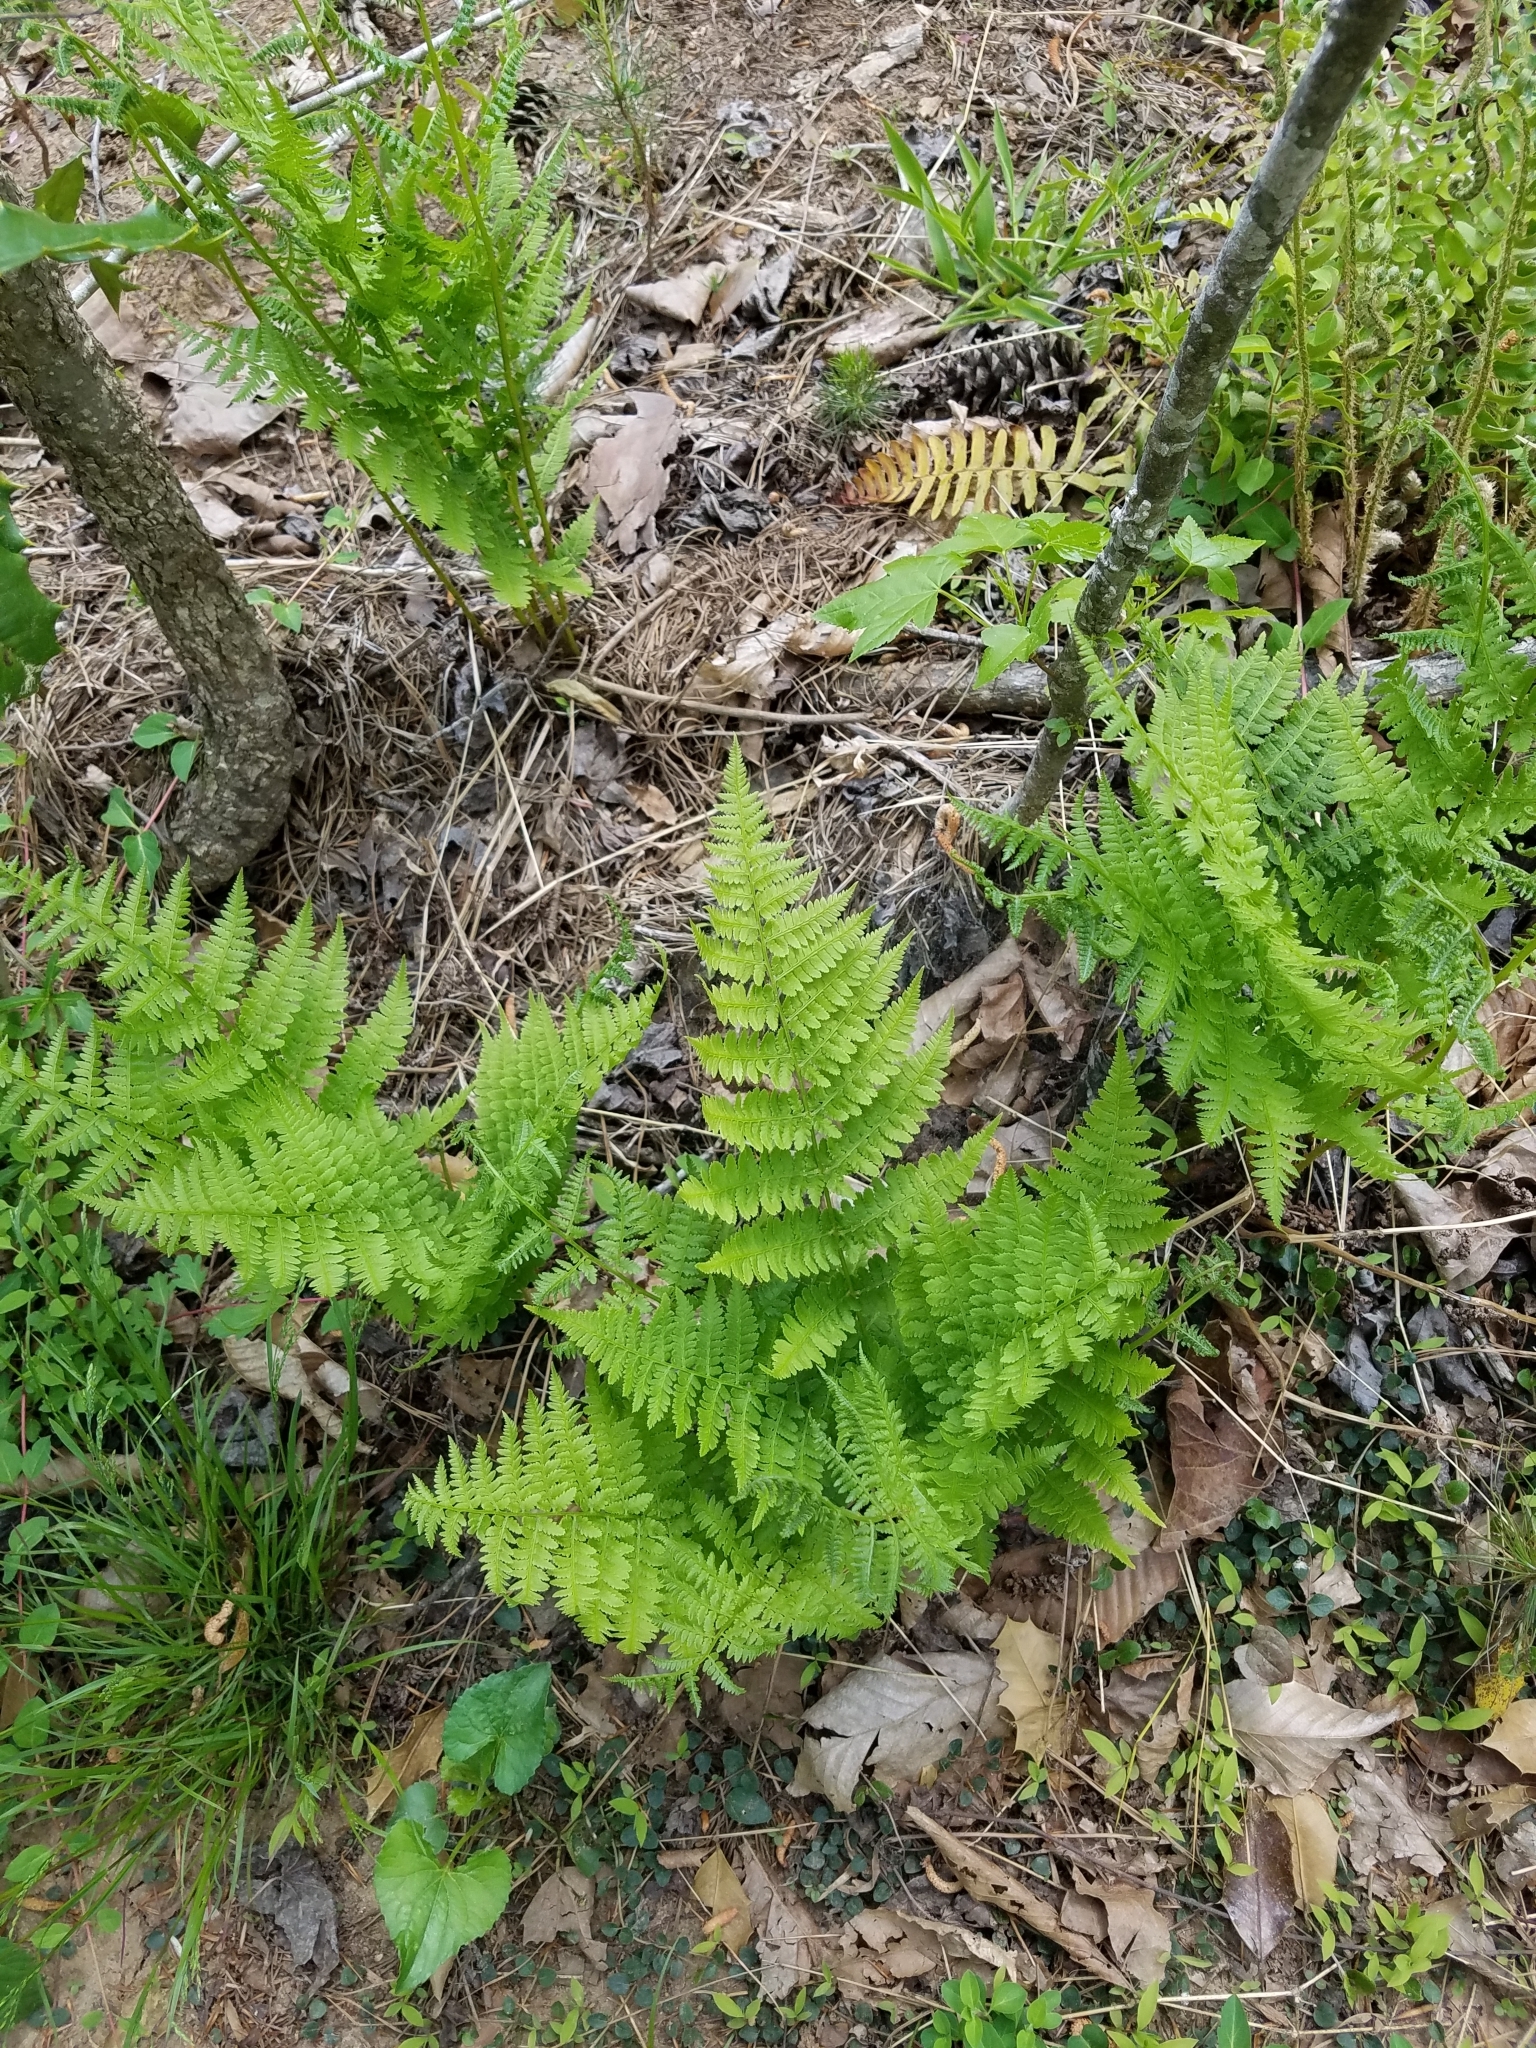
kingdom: Plantae
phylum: Tracheophyta
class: Polypodiopsida
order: Polypodiales
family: Athyriaceae
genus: Athyrium
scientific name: Athyrium asplenioides
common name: Southern lady fern
